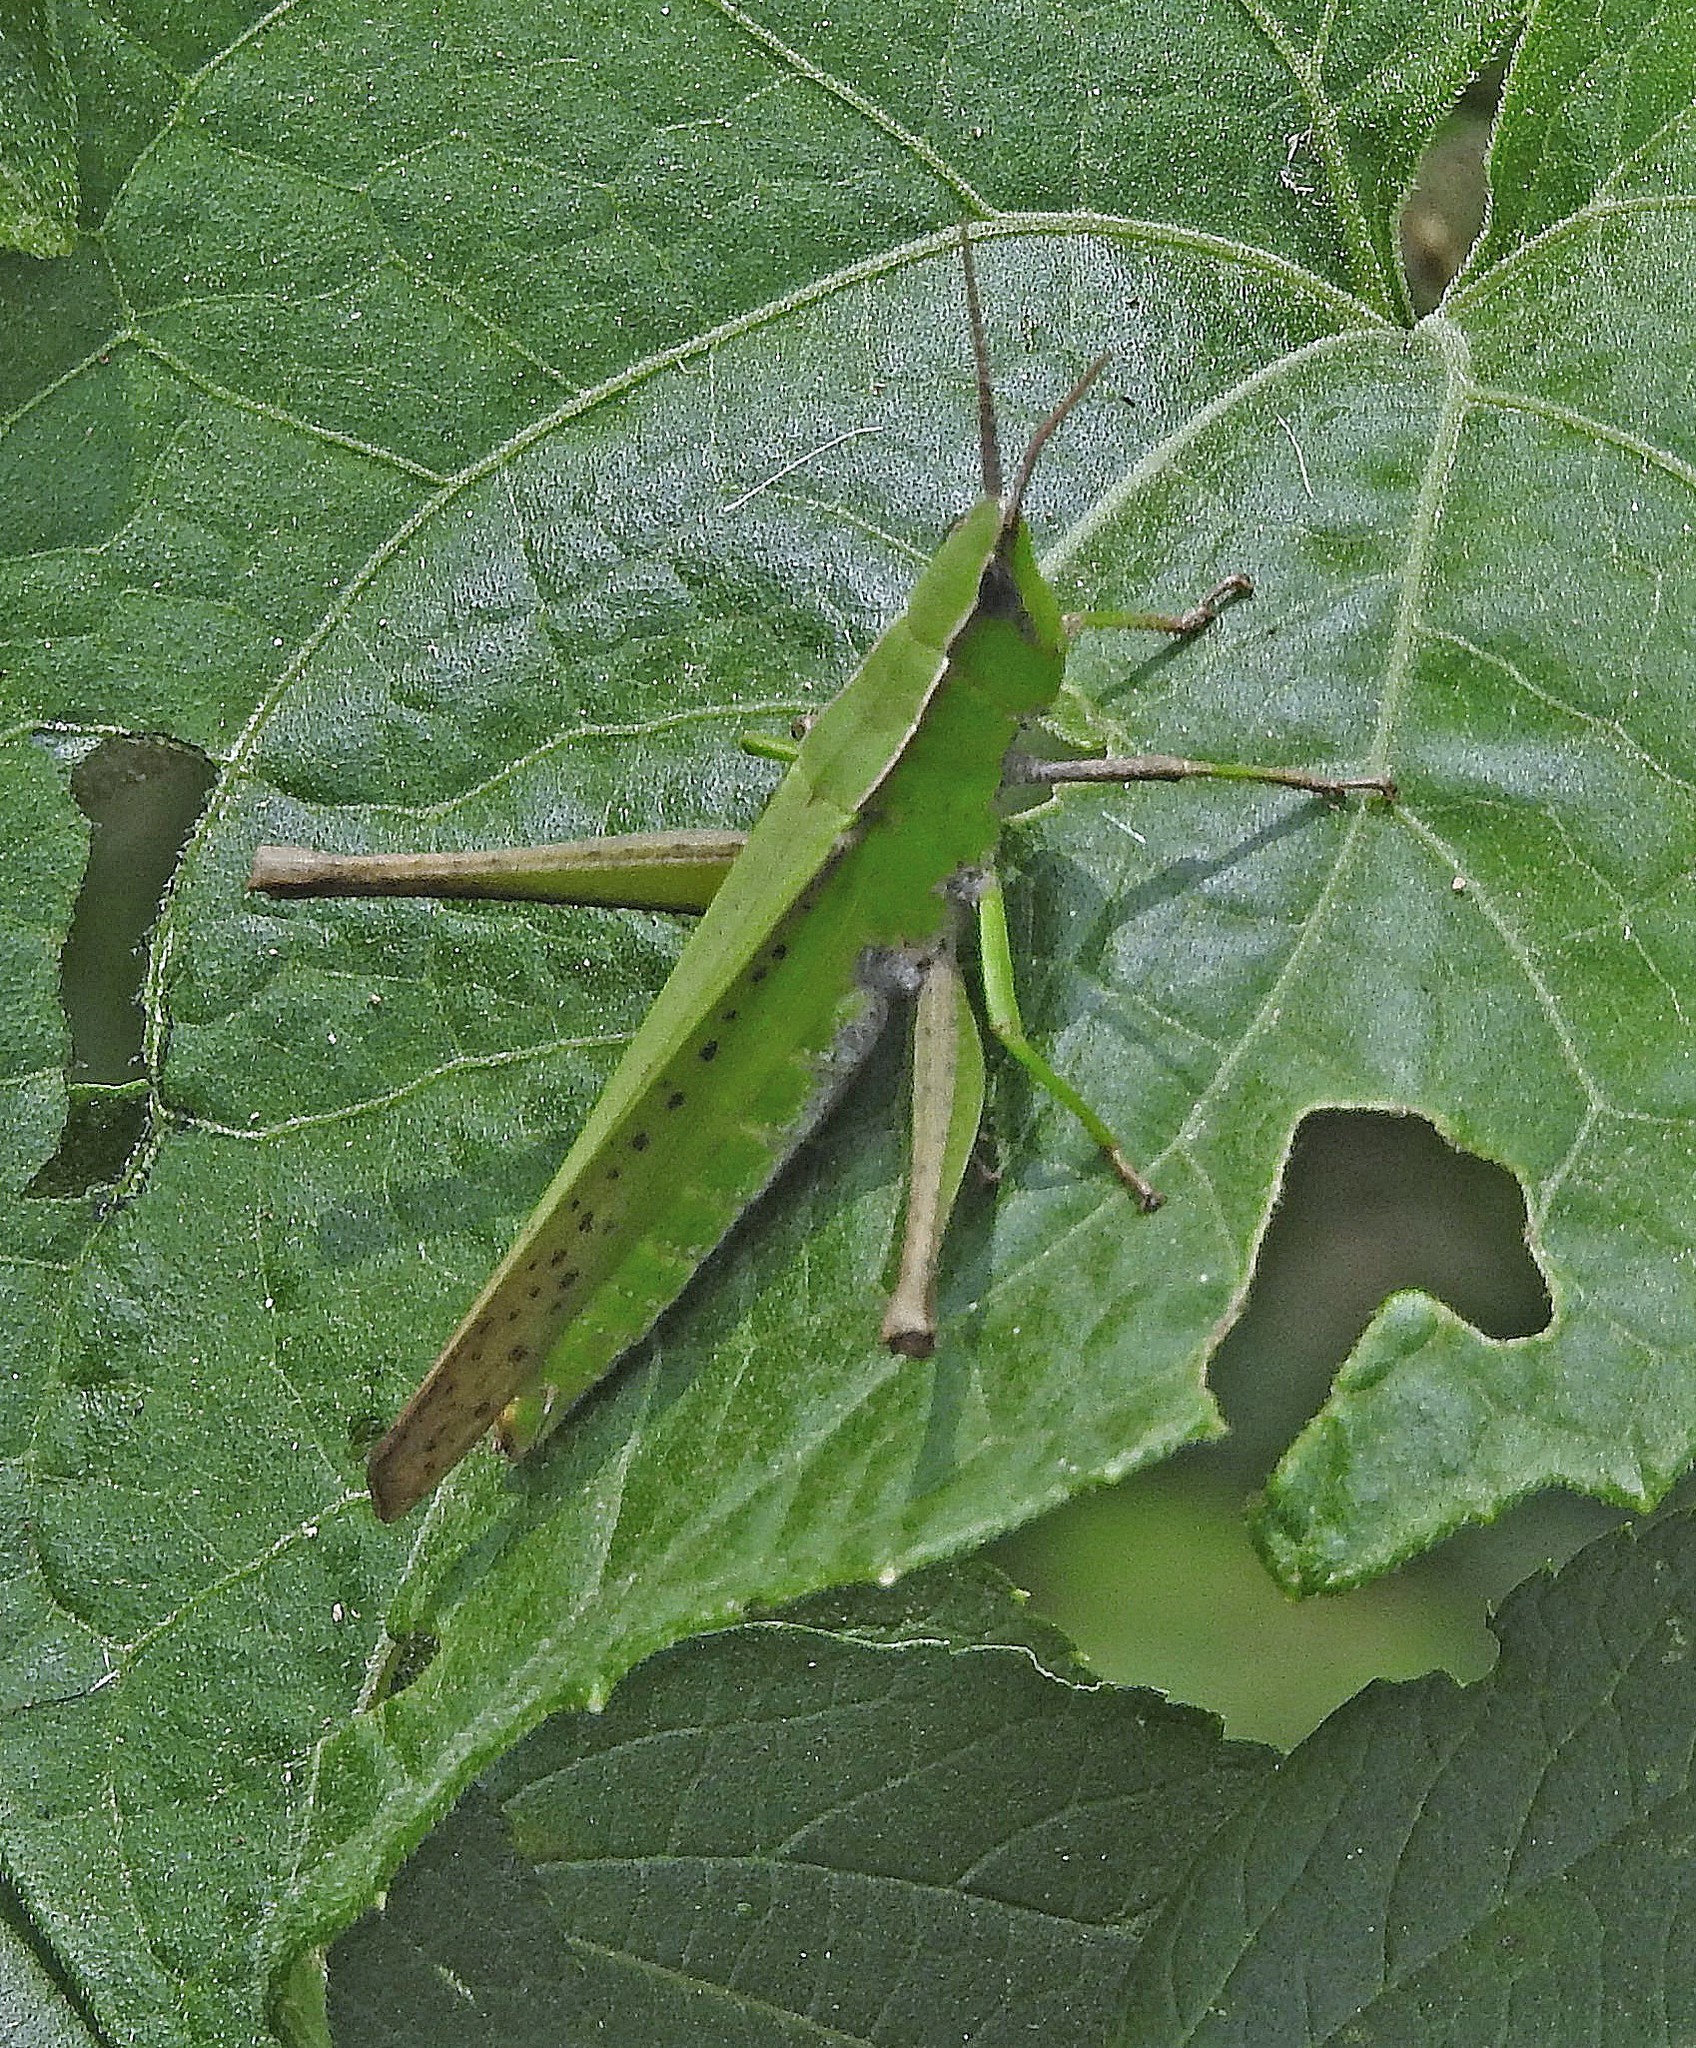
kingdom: Animalia
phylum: Arthropoda
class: Insecta
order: Orthoptera
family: Acrididae
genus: Metaleptea
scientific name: Metaleptea adspersa
